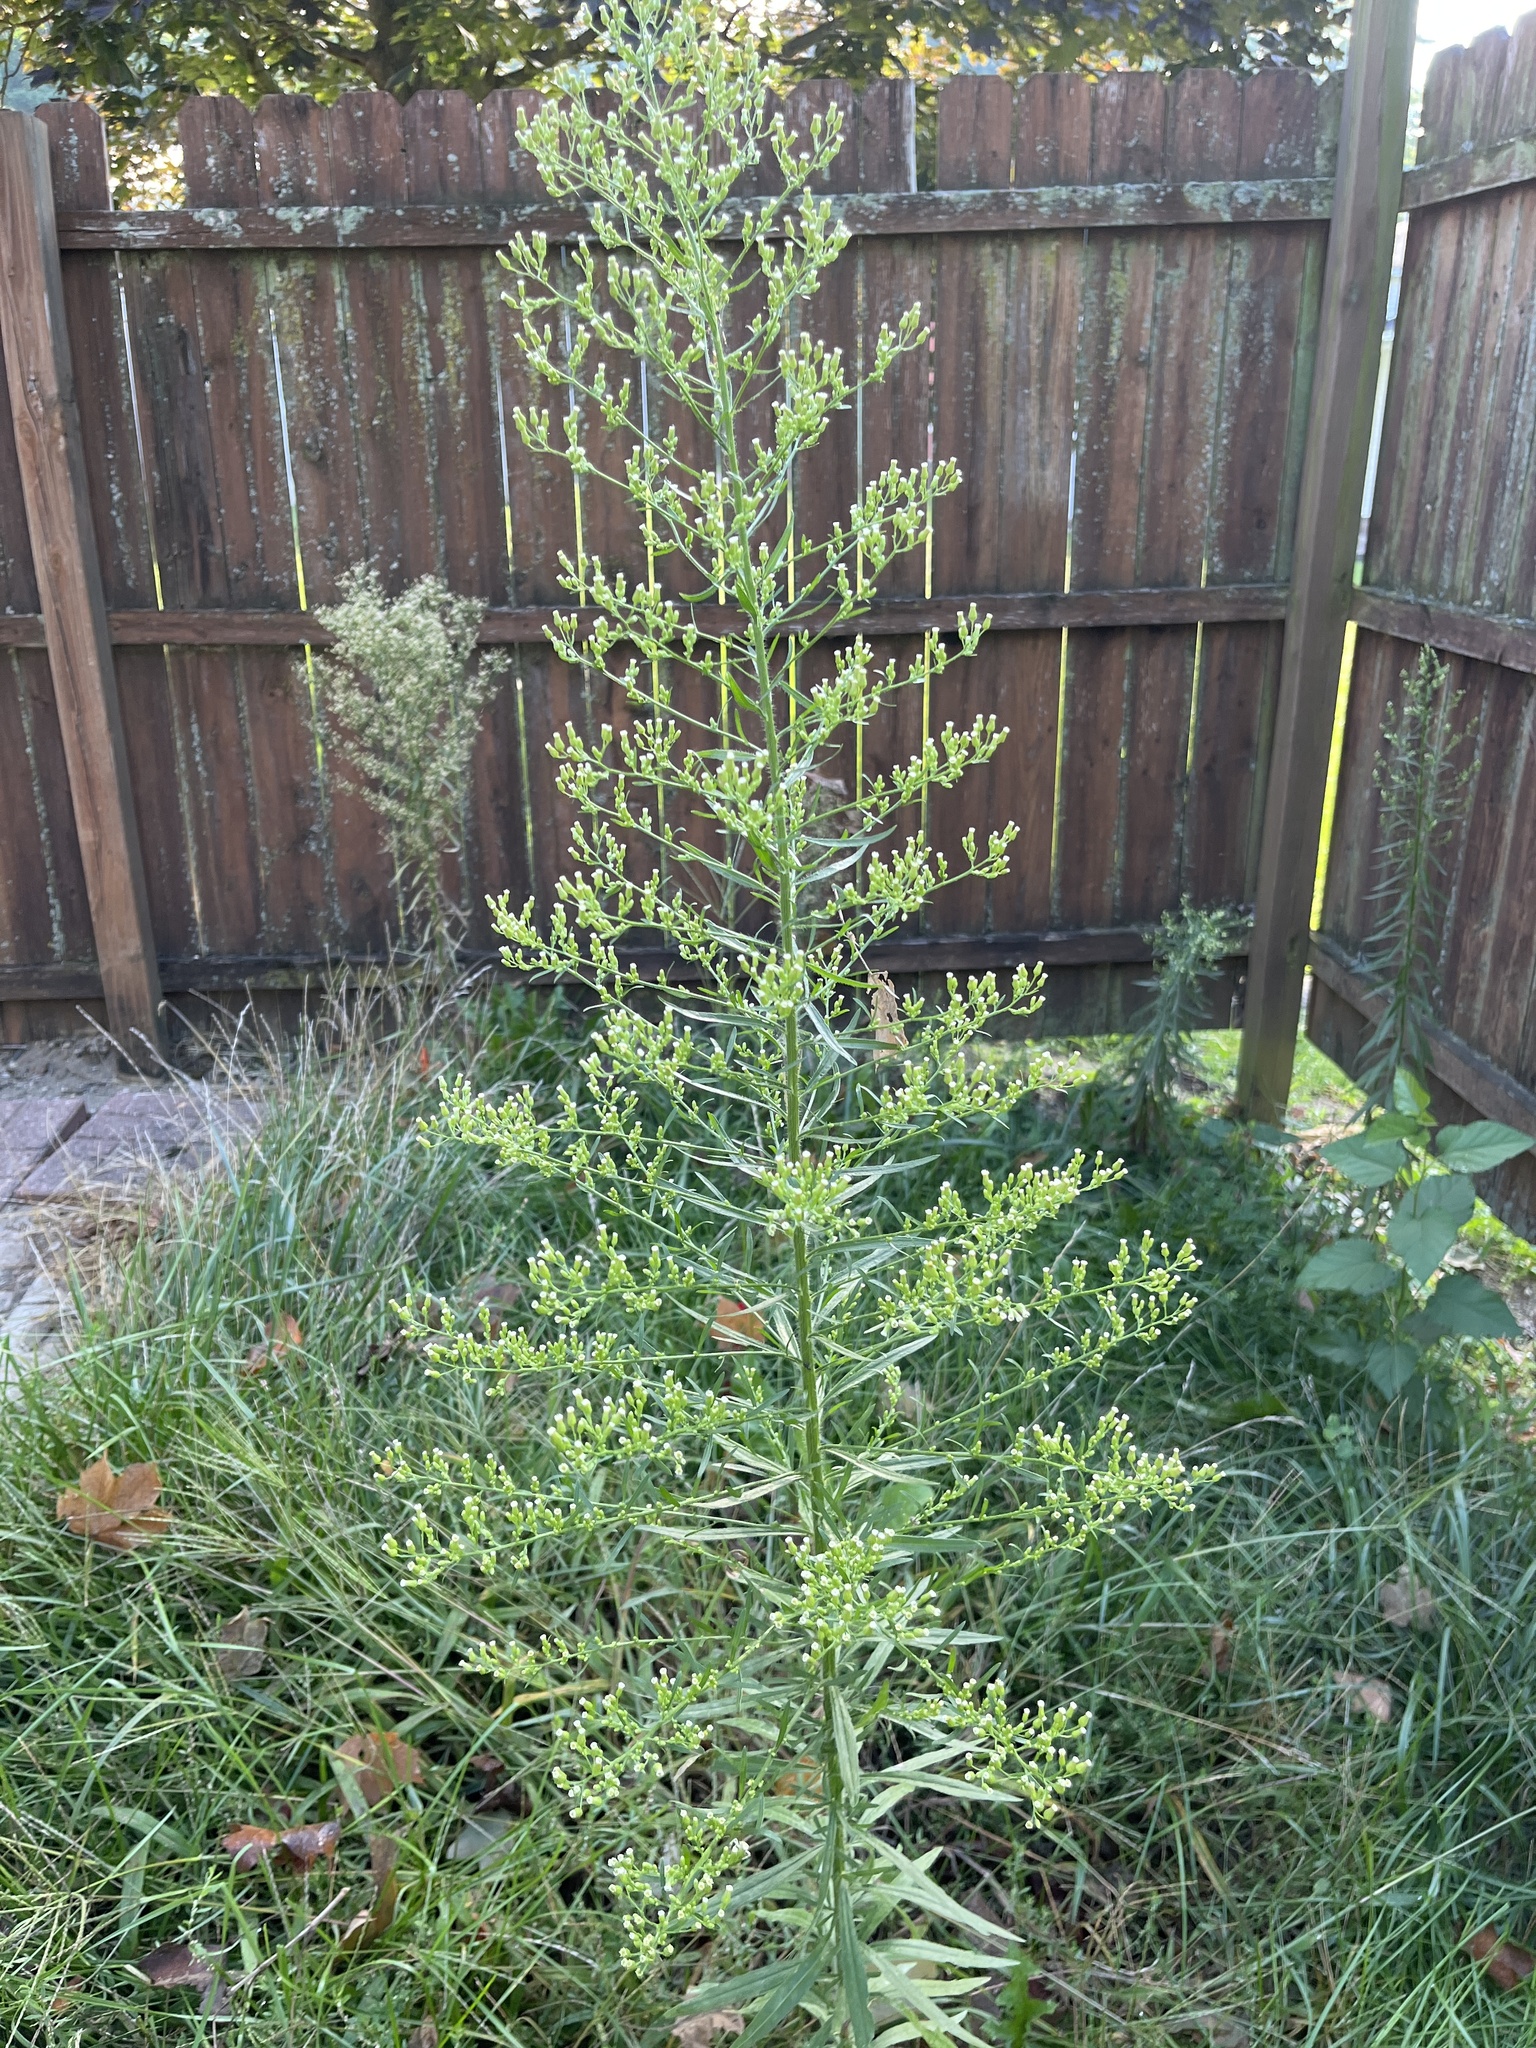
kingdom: Plantae
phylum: Tracheophyta
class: Magnoliopsida
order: Asterales
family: Asteraceae
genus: Erigeron
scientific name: Erigeron canadensis
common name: Canadian fleabane
